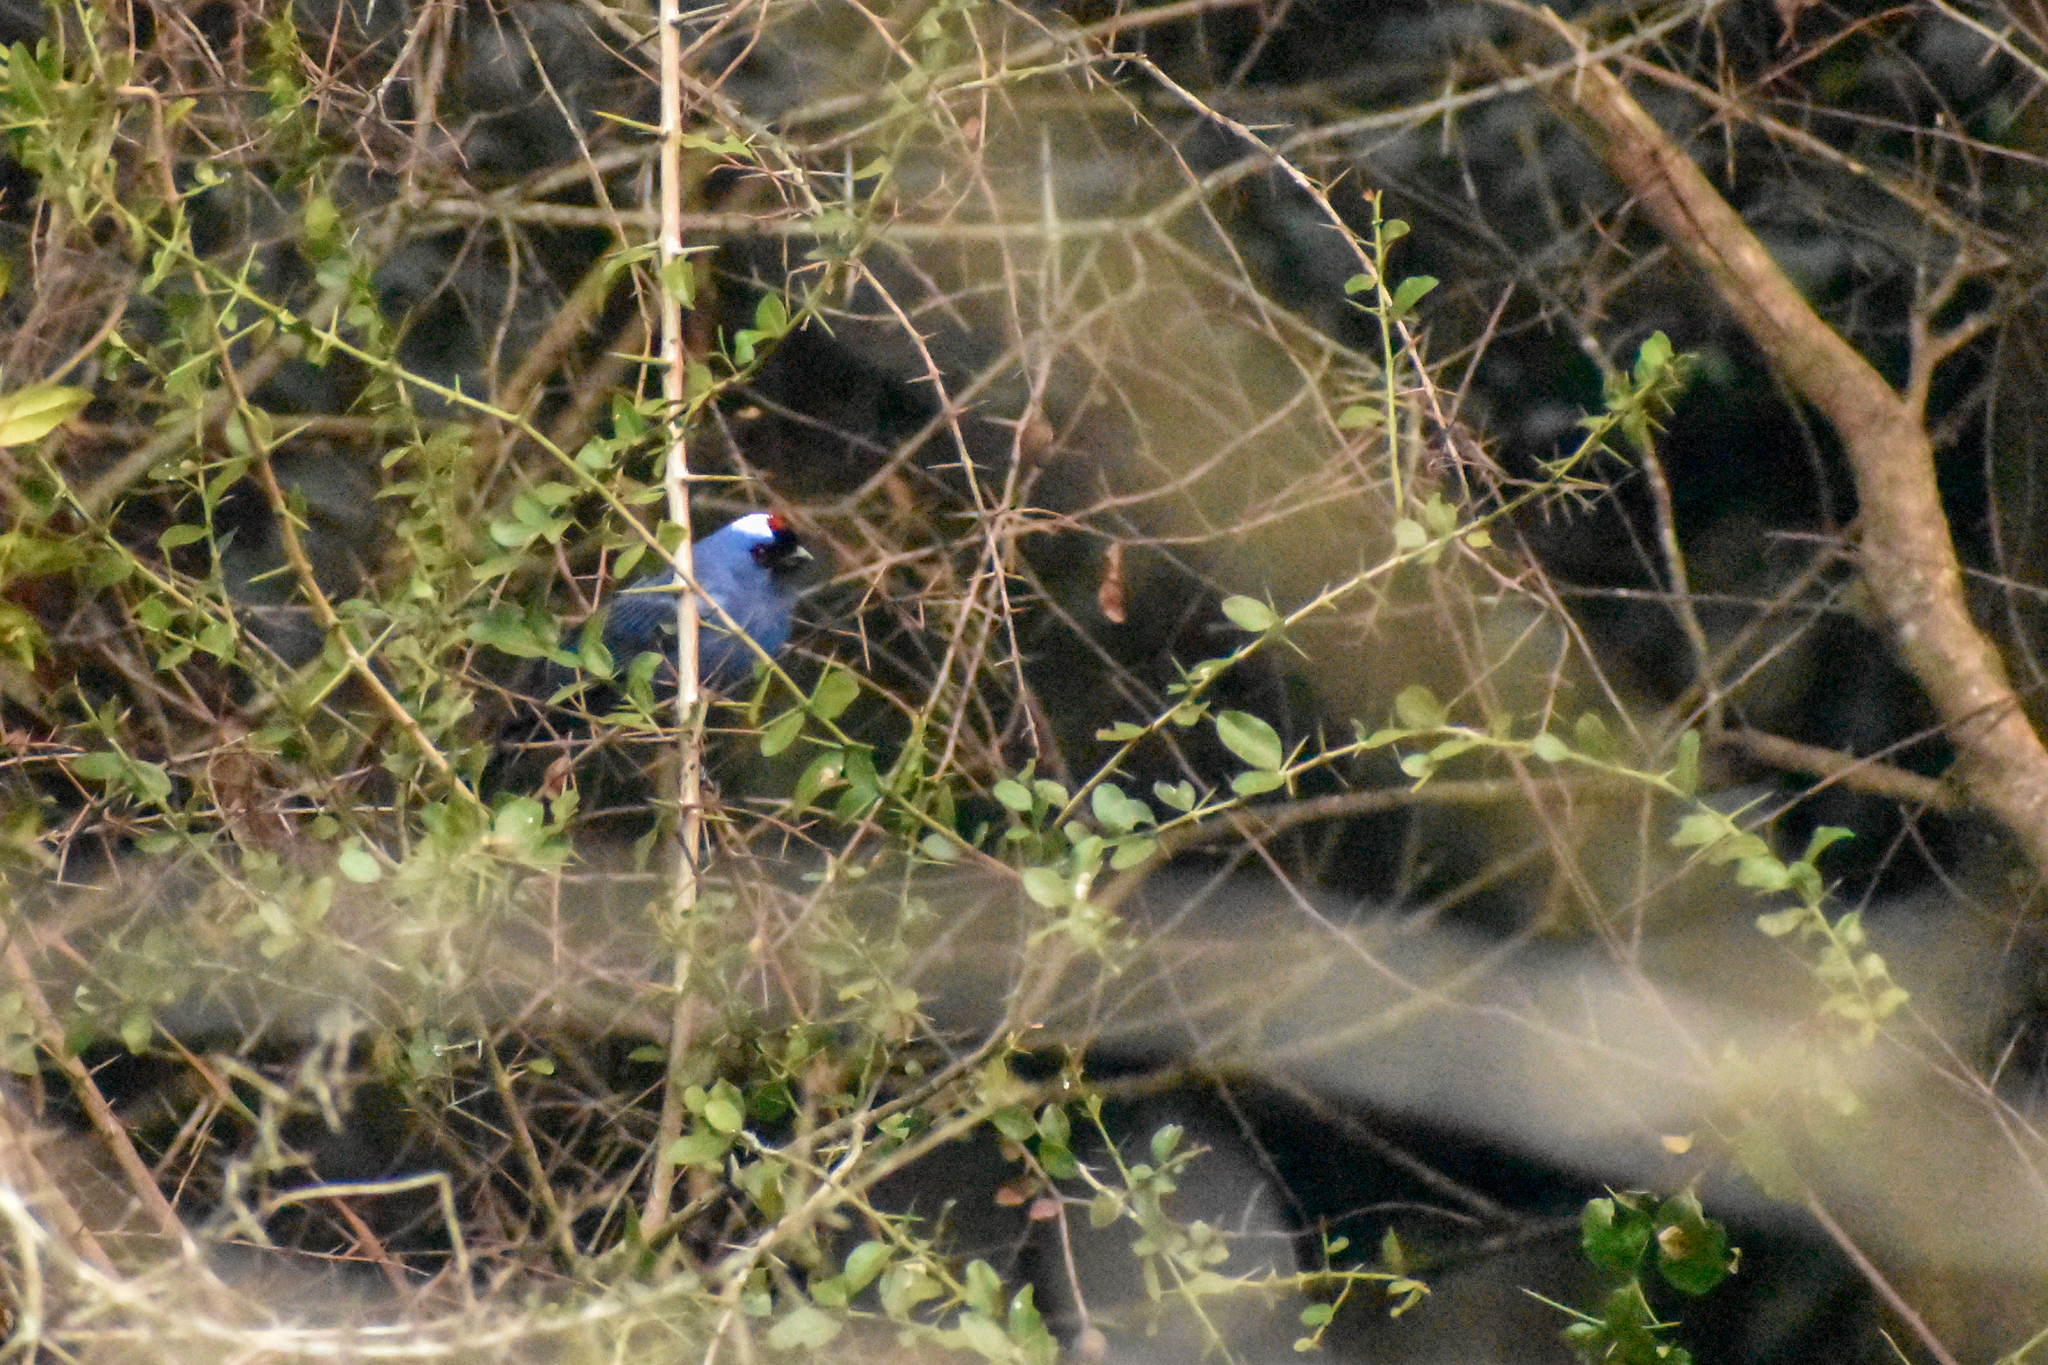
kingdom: Animalia
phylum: Chordata
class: Aves
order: Passeriformes
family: Thraupidae
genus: Stephanophorus
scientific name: Stephanophorus diadematus
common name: Diademed tanager
